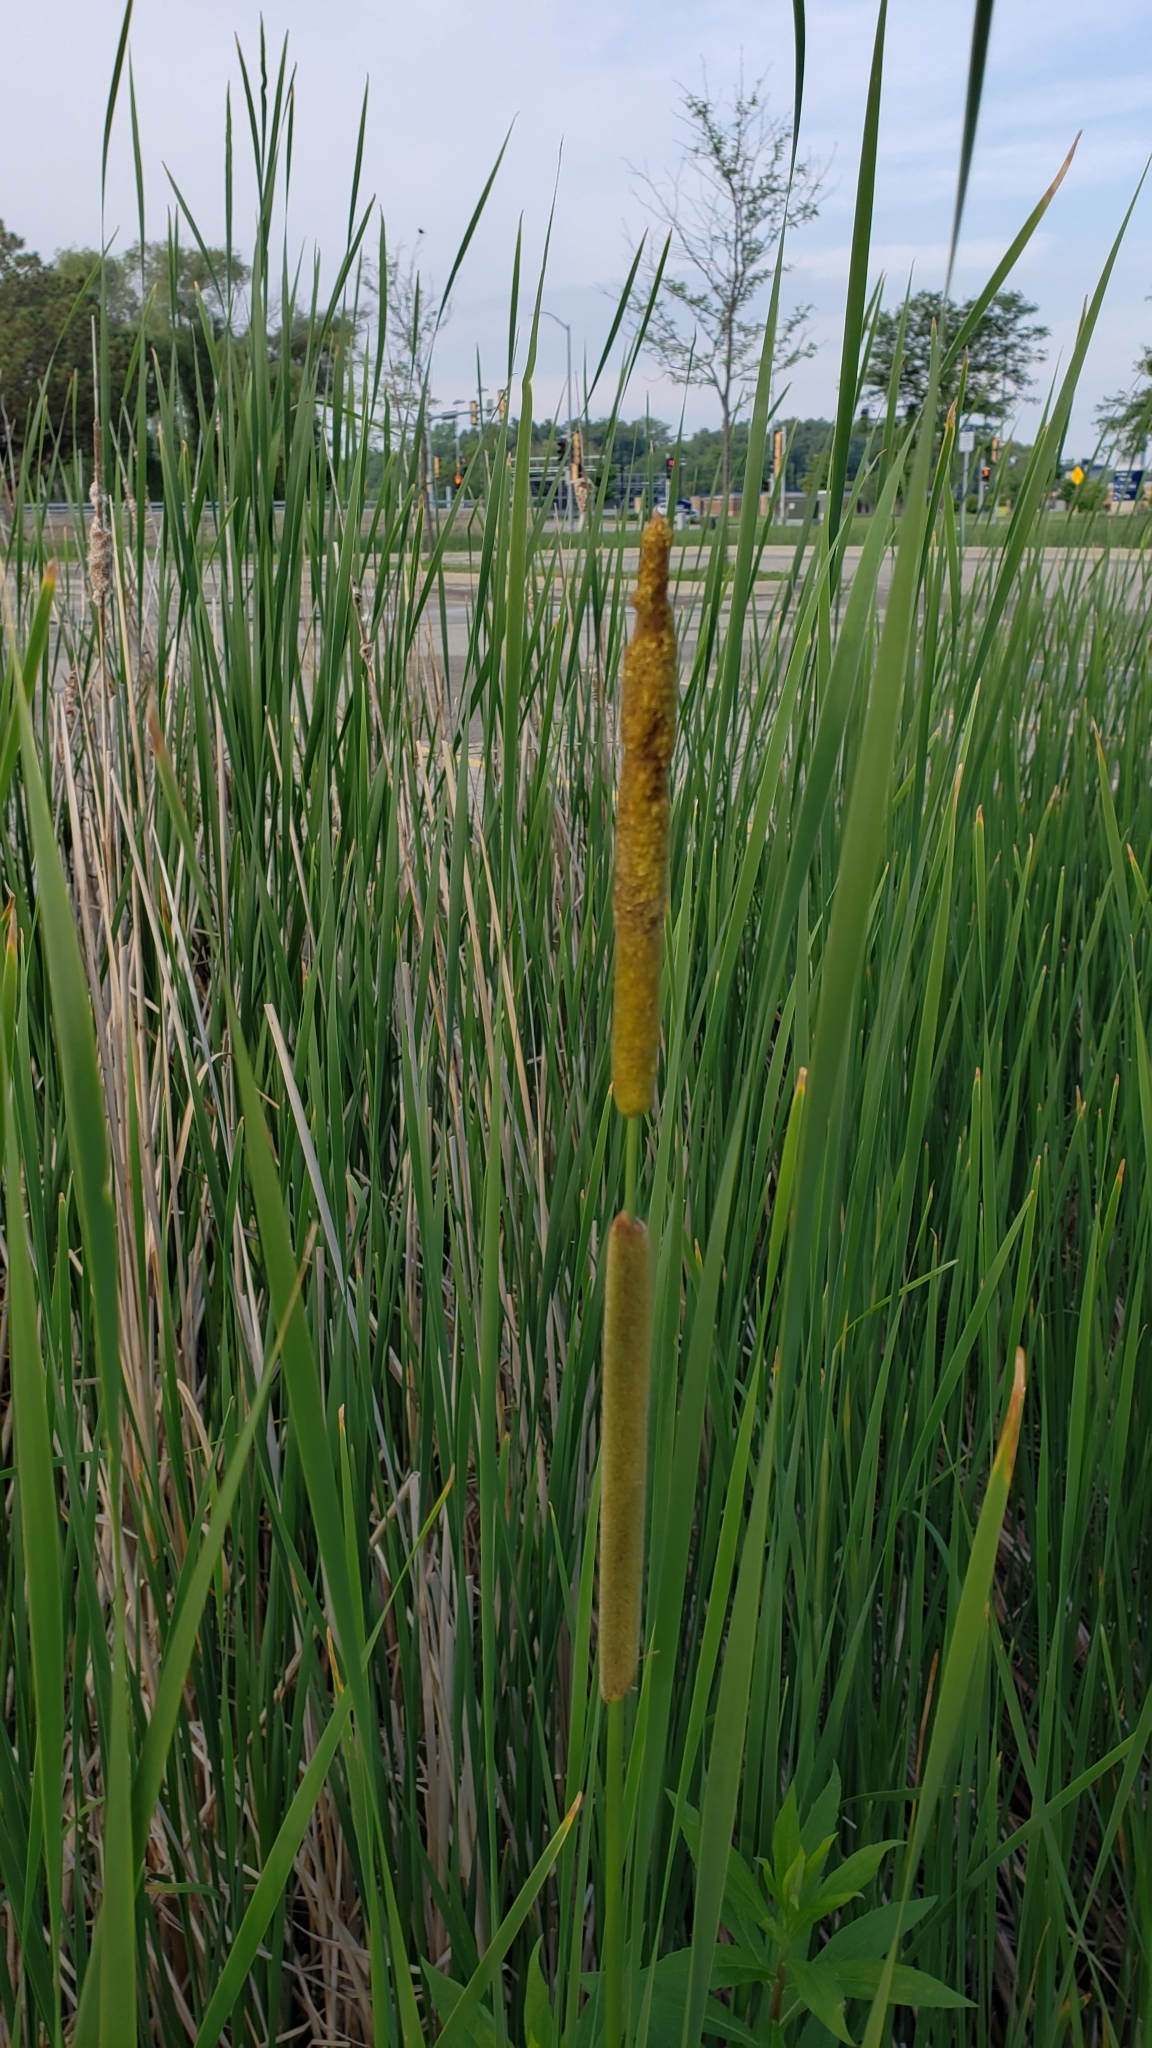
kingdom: Plantae
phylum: Tracheophyta
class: Liliopsida
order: Poales
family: Typhaceae
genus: Typha
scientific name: Typha angustifolia
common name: Lesser bulrush
